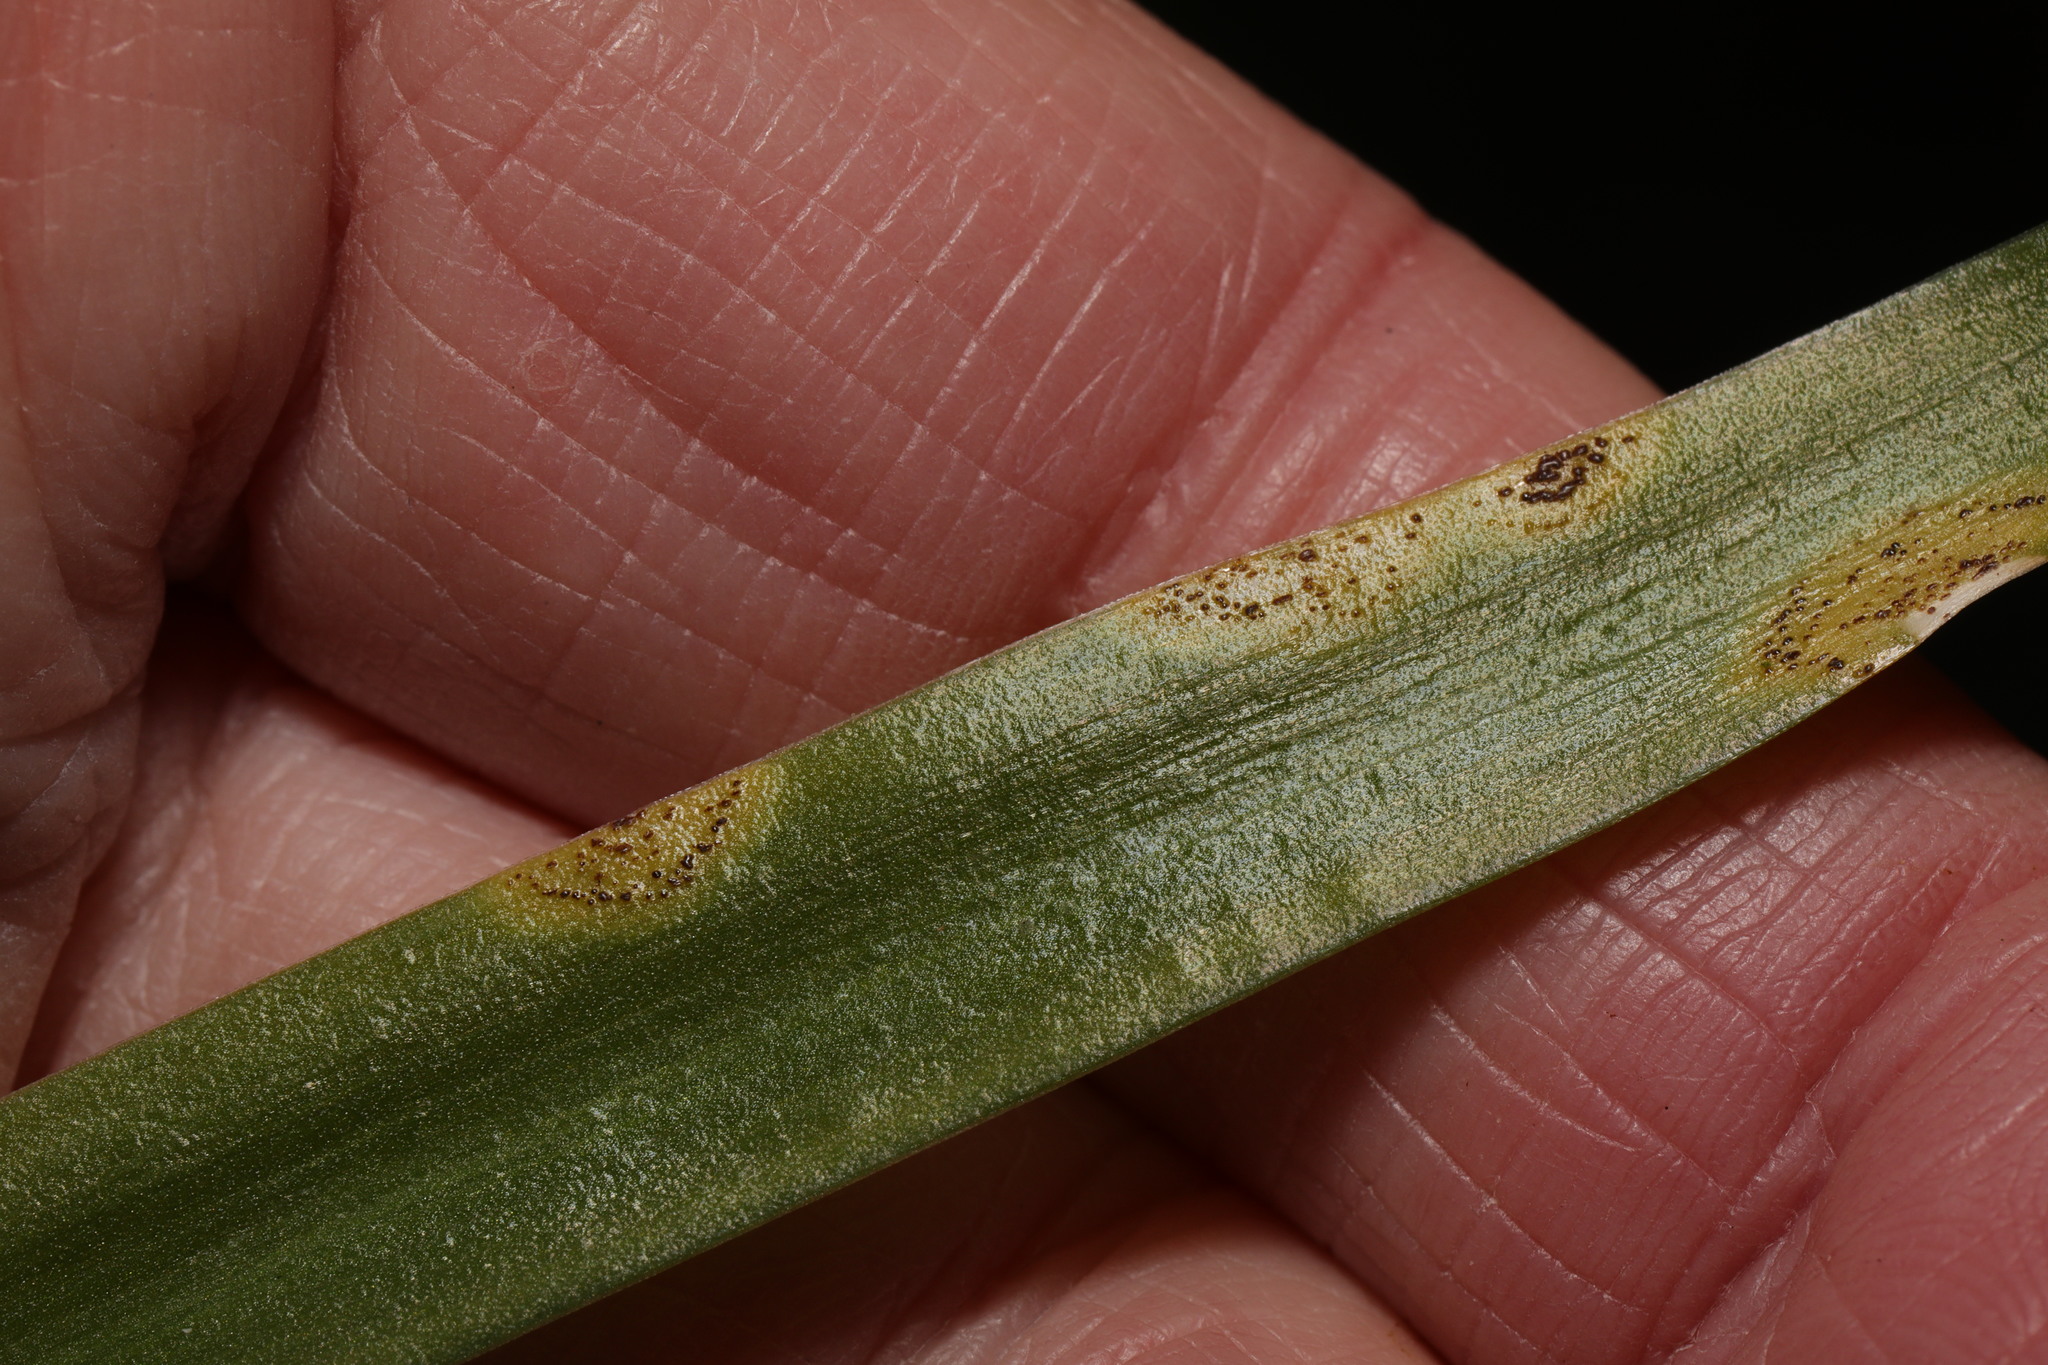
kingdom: Fungi
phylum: Basidiomycota
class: Pucciniomycetes
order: Pucciniales
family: Pucciniaceae
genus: Uromyces
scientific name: Uromyces hyacinthi
